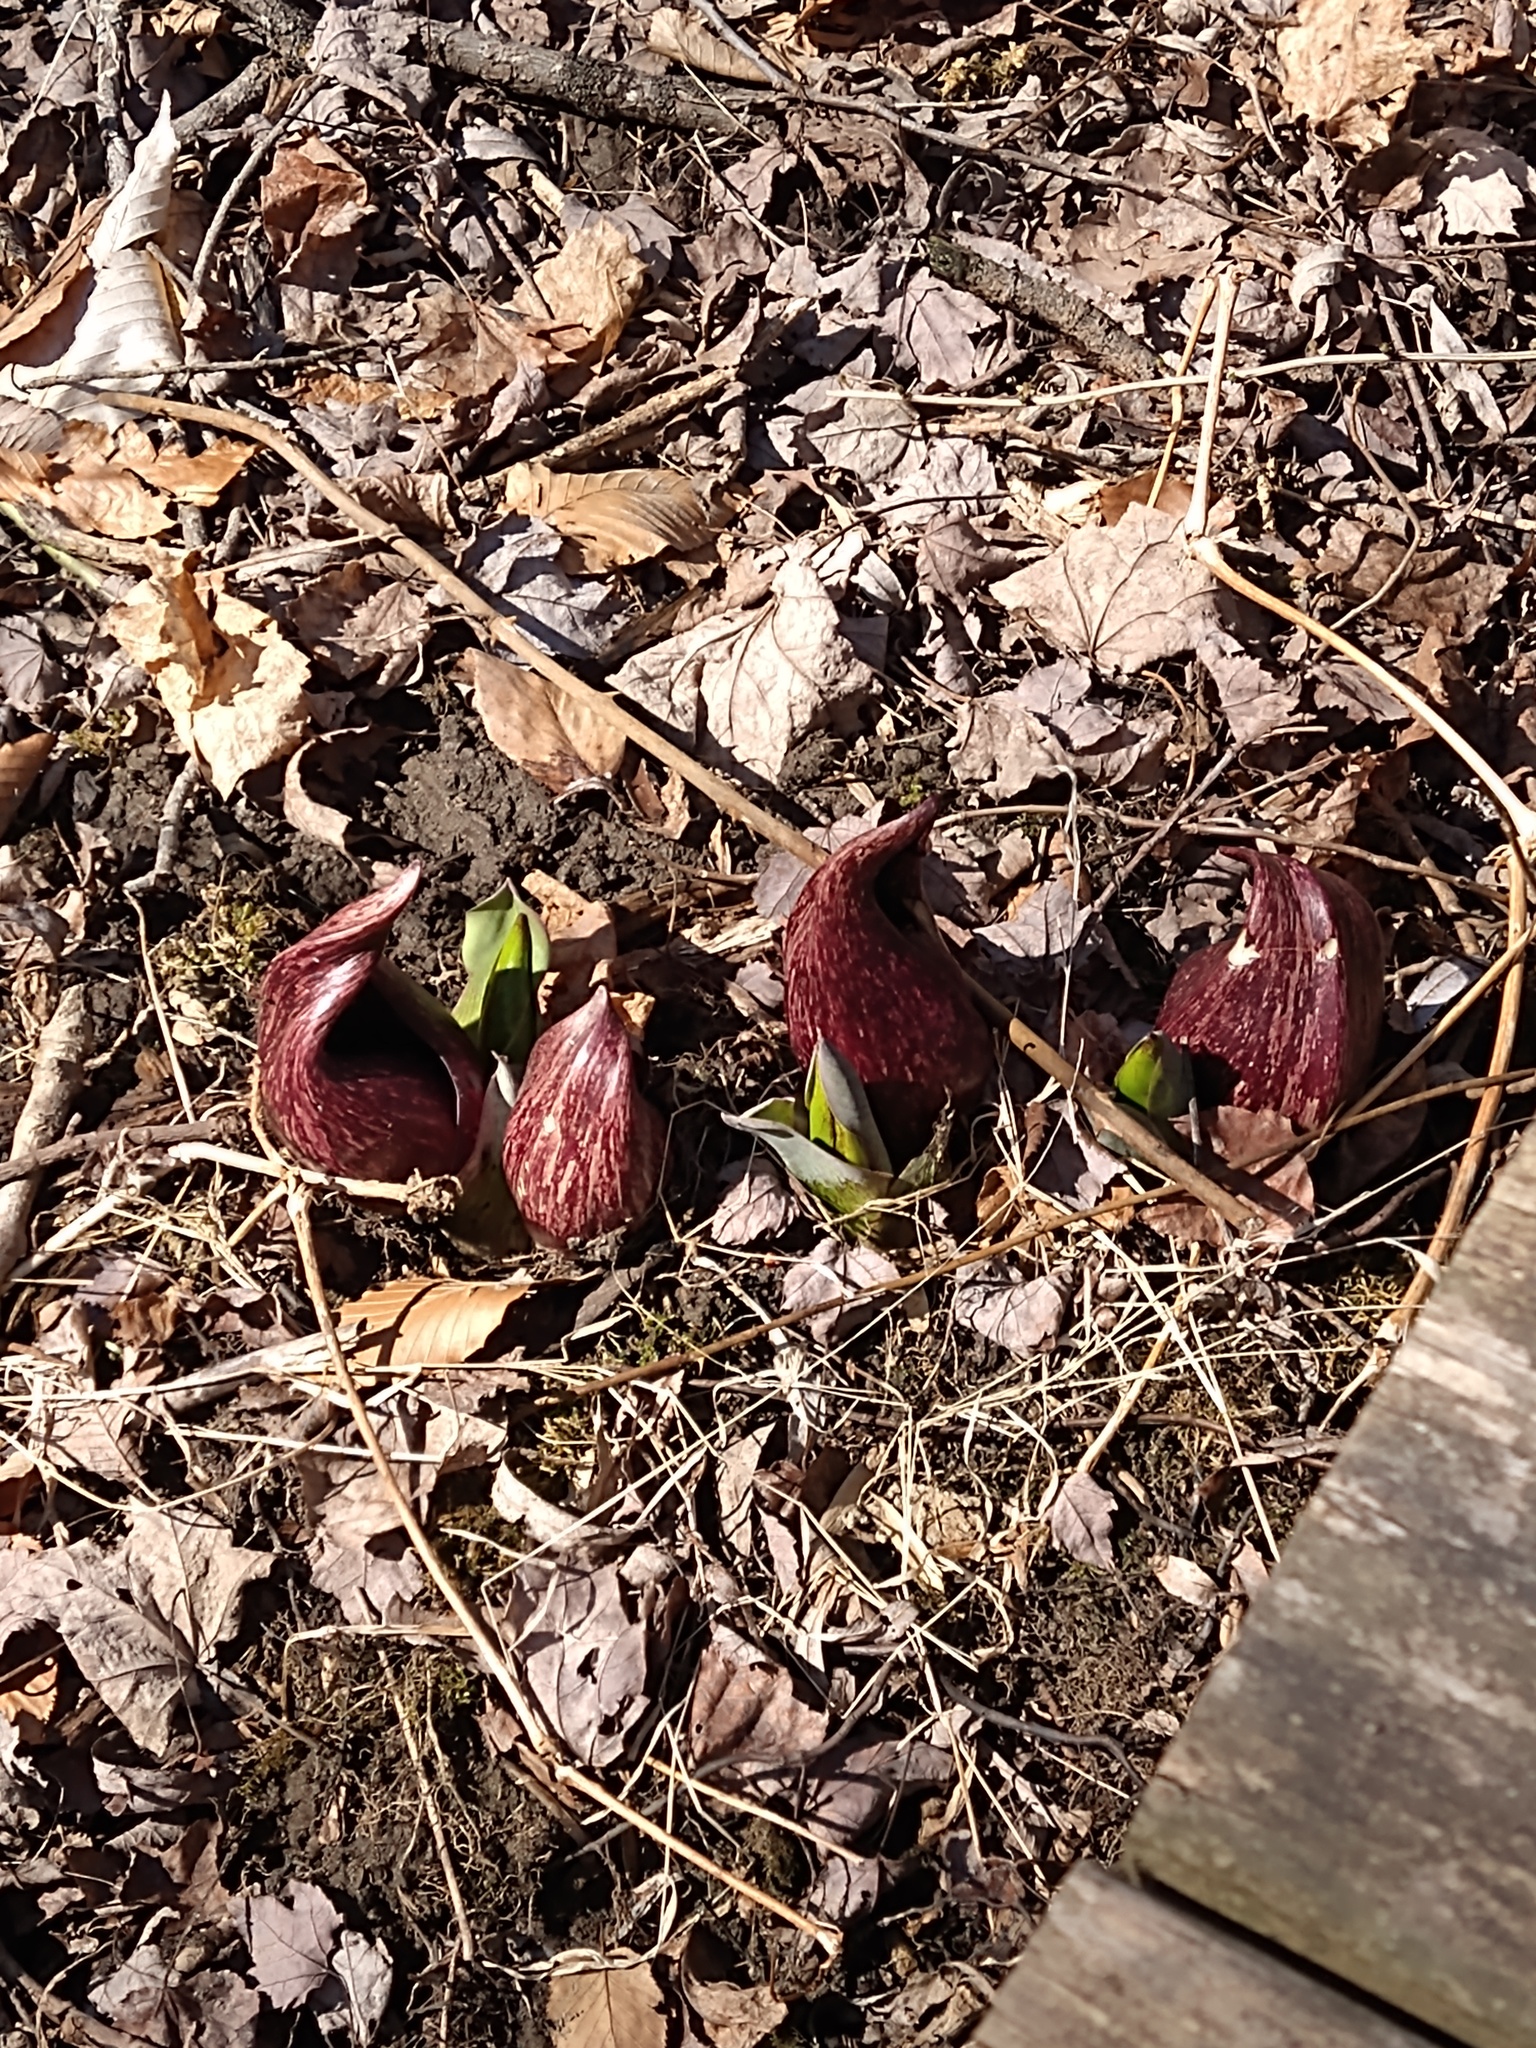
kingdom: Plantae
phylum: Tracheophyta
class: Liliopsida
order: Alismatales
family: Araceae
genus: Symplocarpus
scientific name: Symplocarpus foetidus
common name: Eastern skunk cabbage
